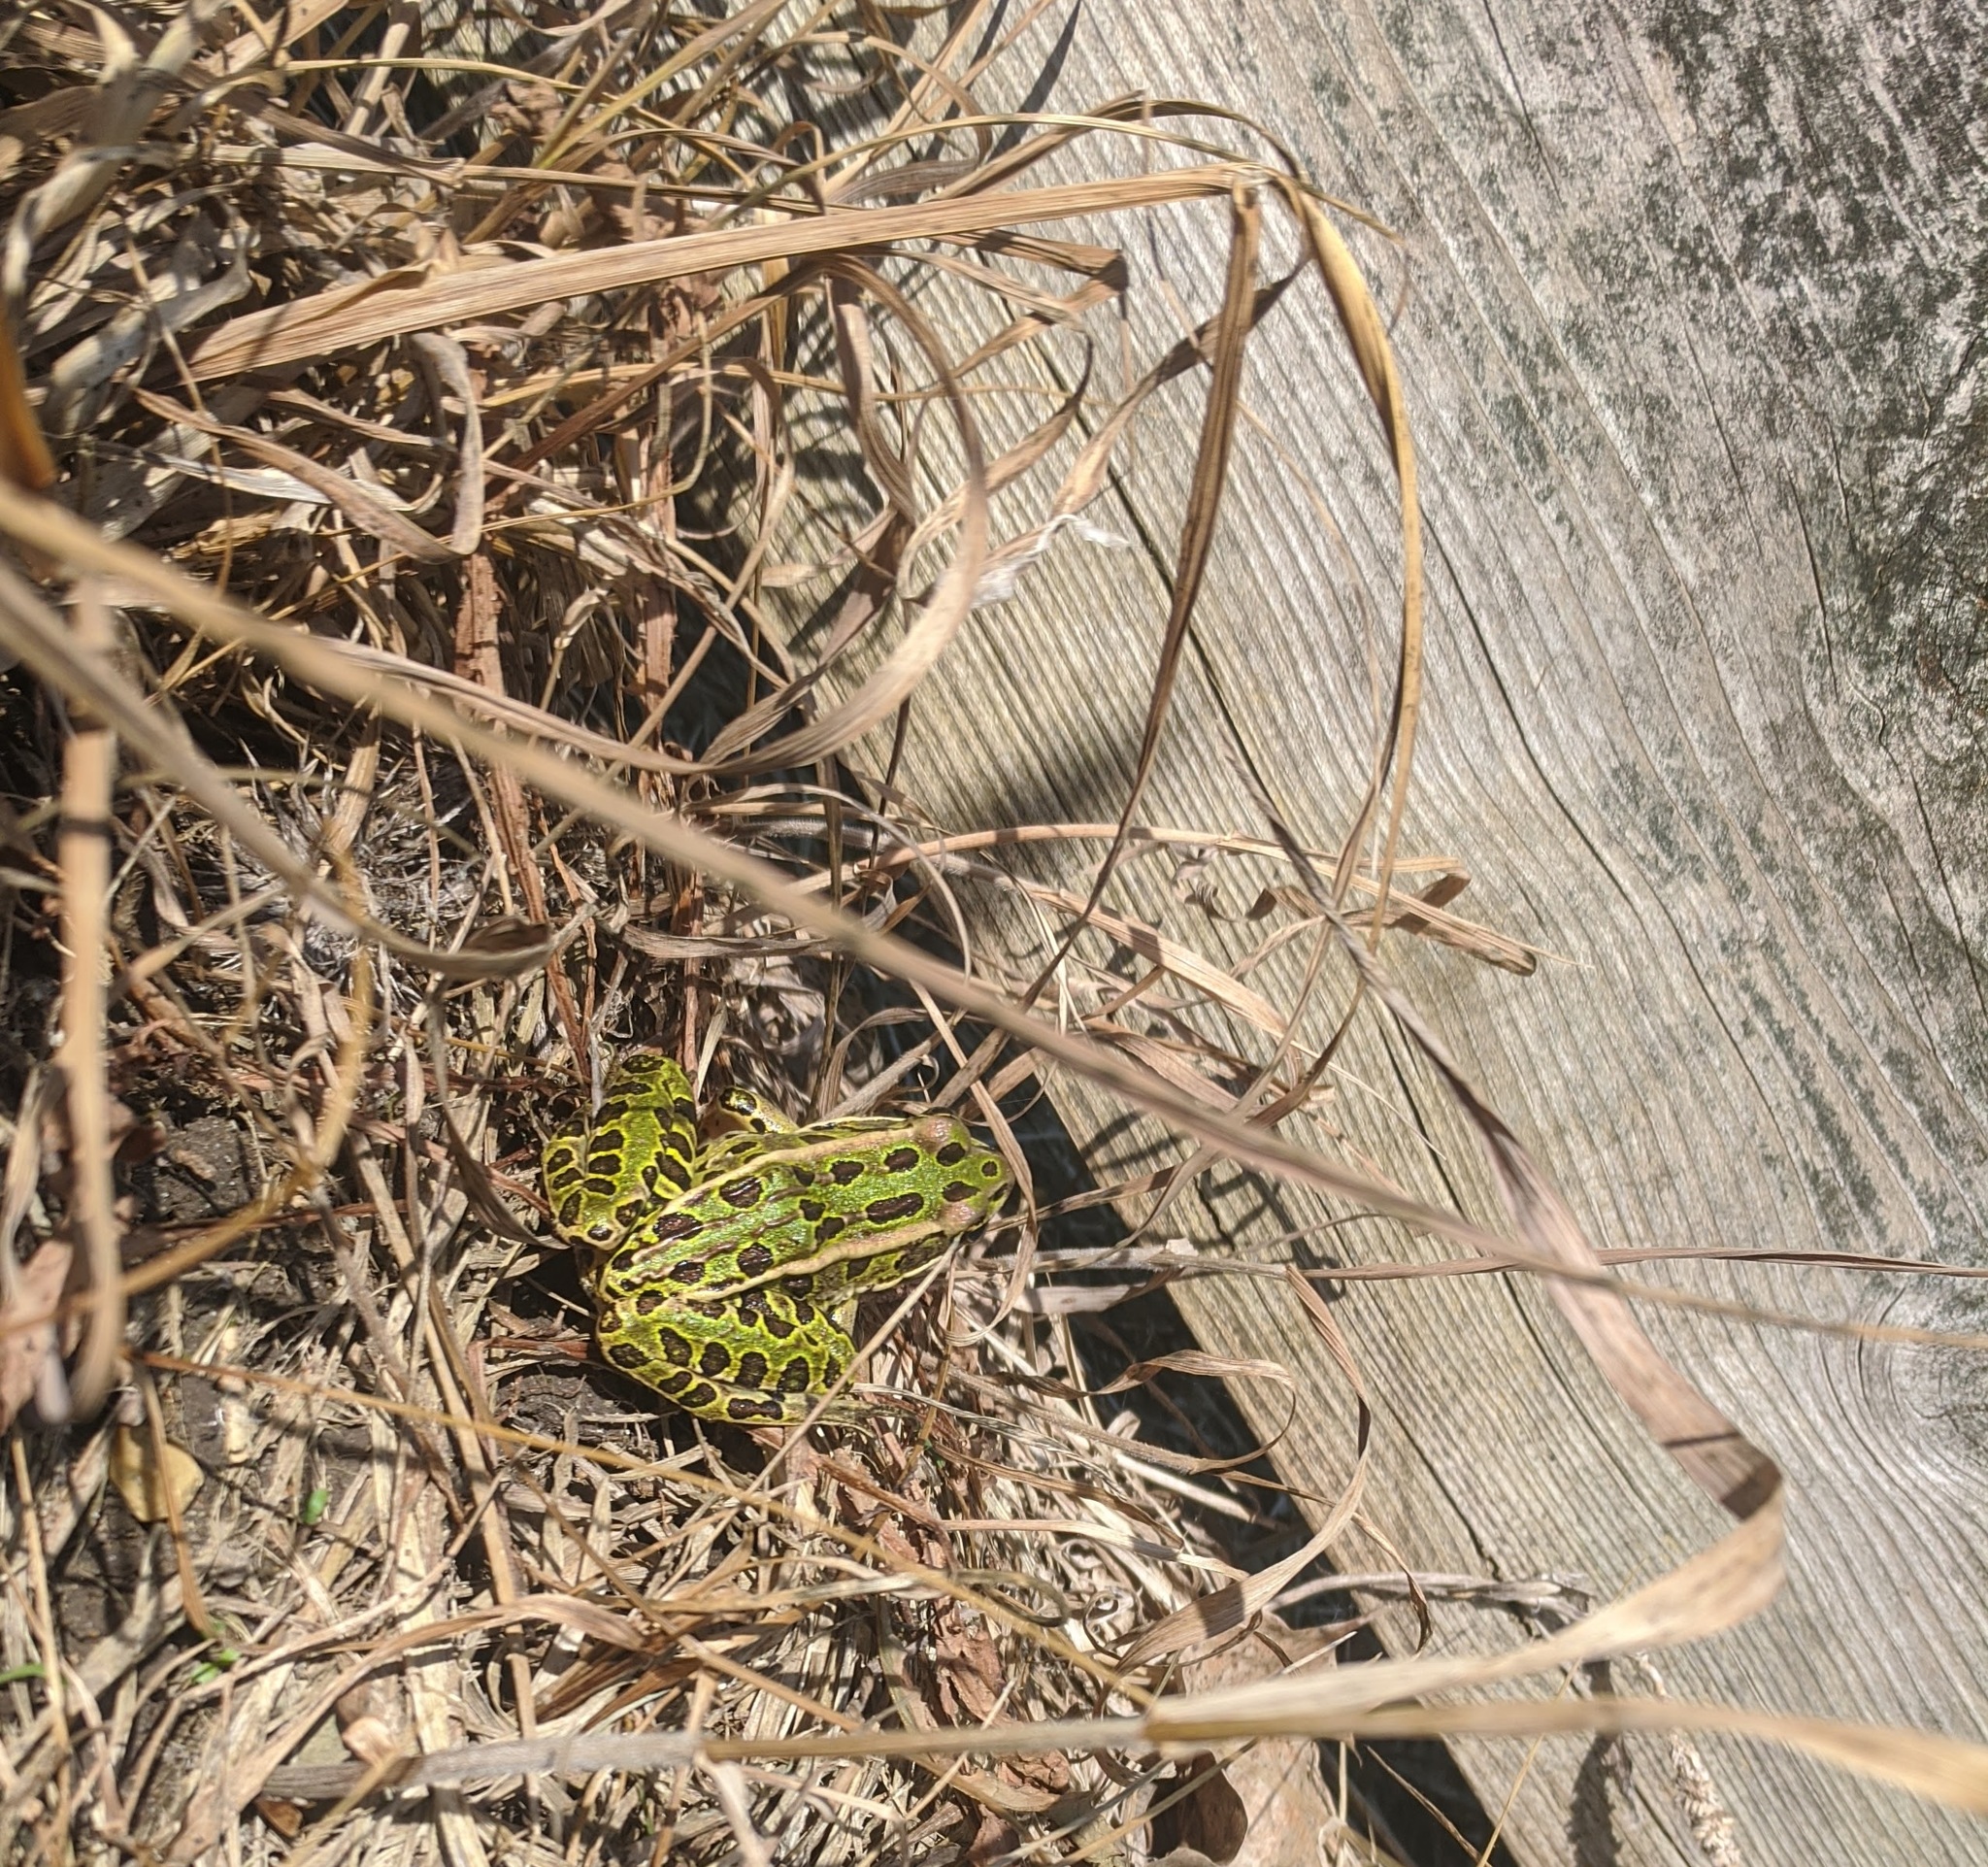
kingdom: Animalia
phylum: Chordata
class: Amphibia
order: Anura
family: Ranidae
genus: Lithobates
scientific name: Lithobates pipiens
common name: Northern leopard frog
